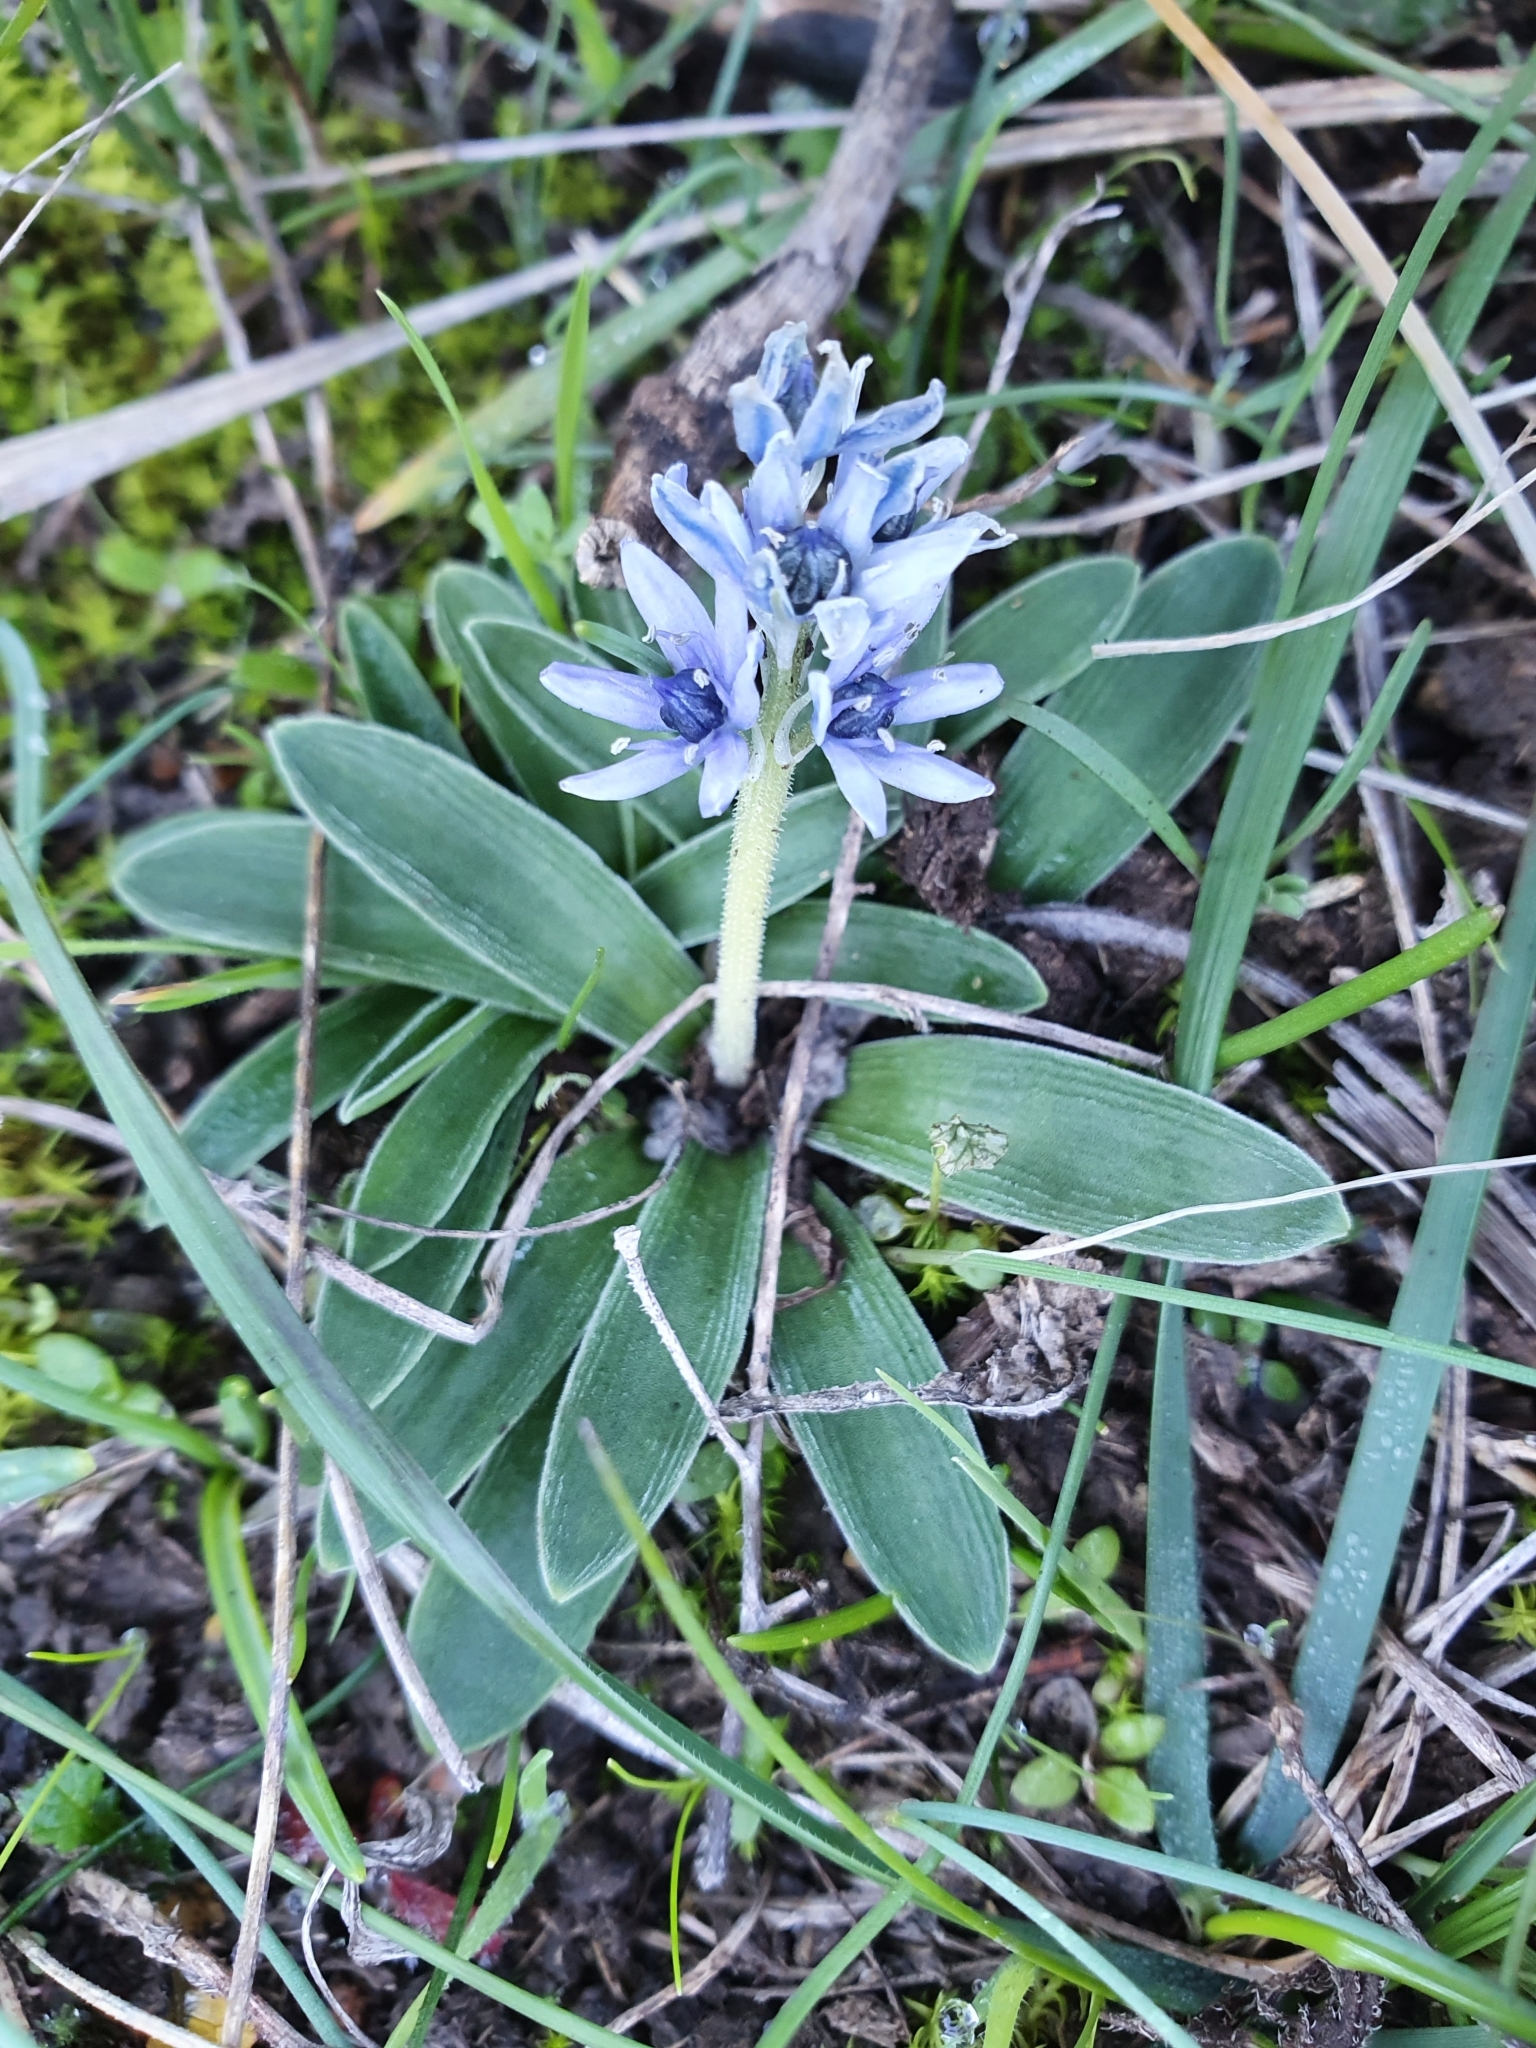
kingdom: Plantae
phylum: Tracheophyta
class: Liliopsida
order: Asparagales
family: Asparagaceae
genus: Hyacinthoides
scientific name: Hyacinthoides lingulata
